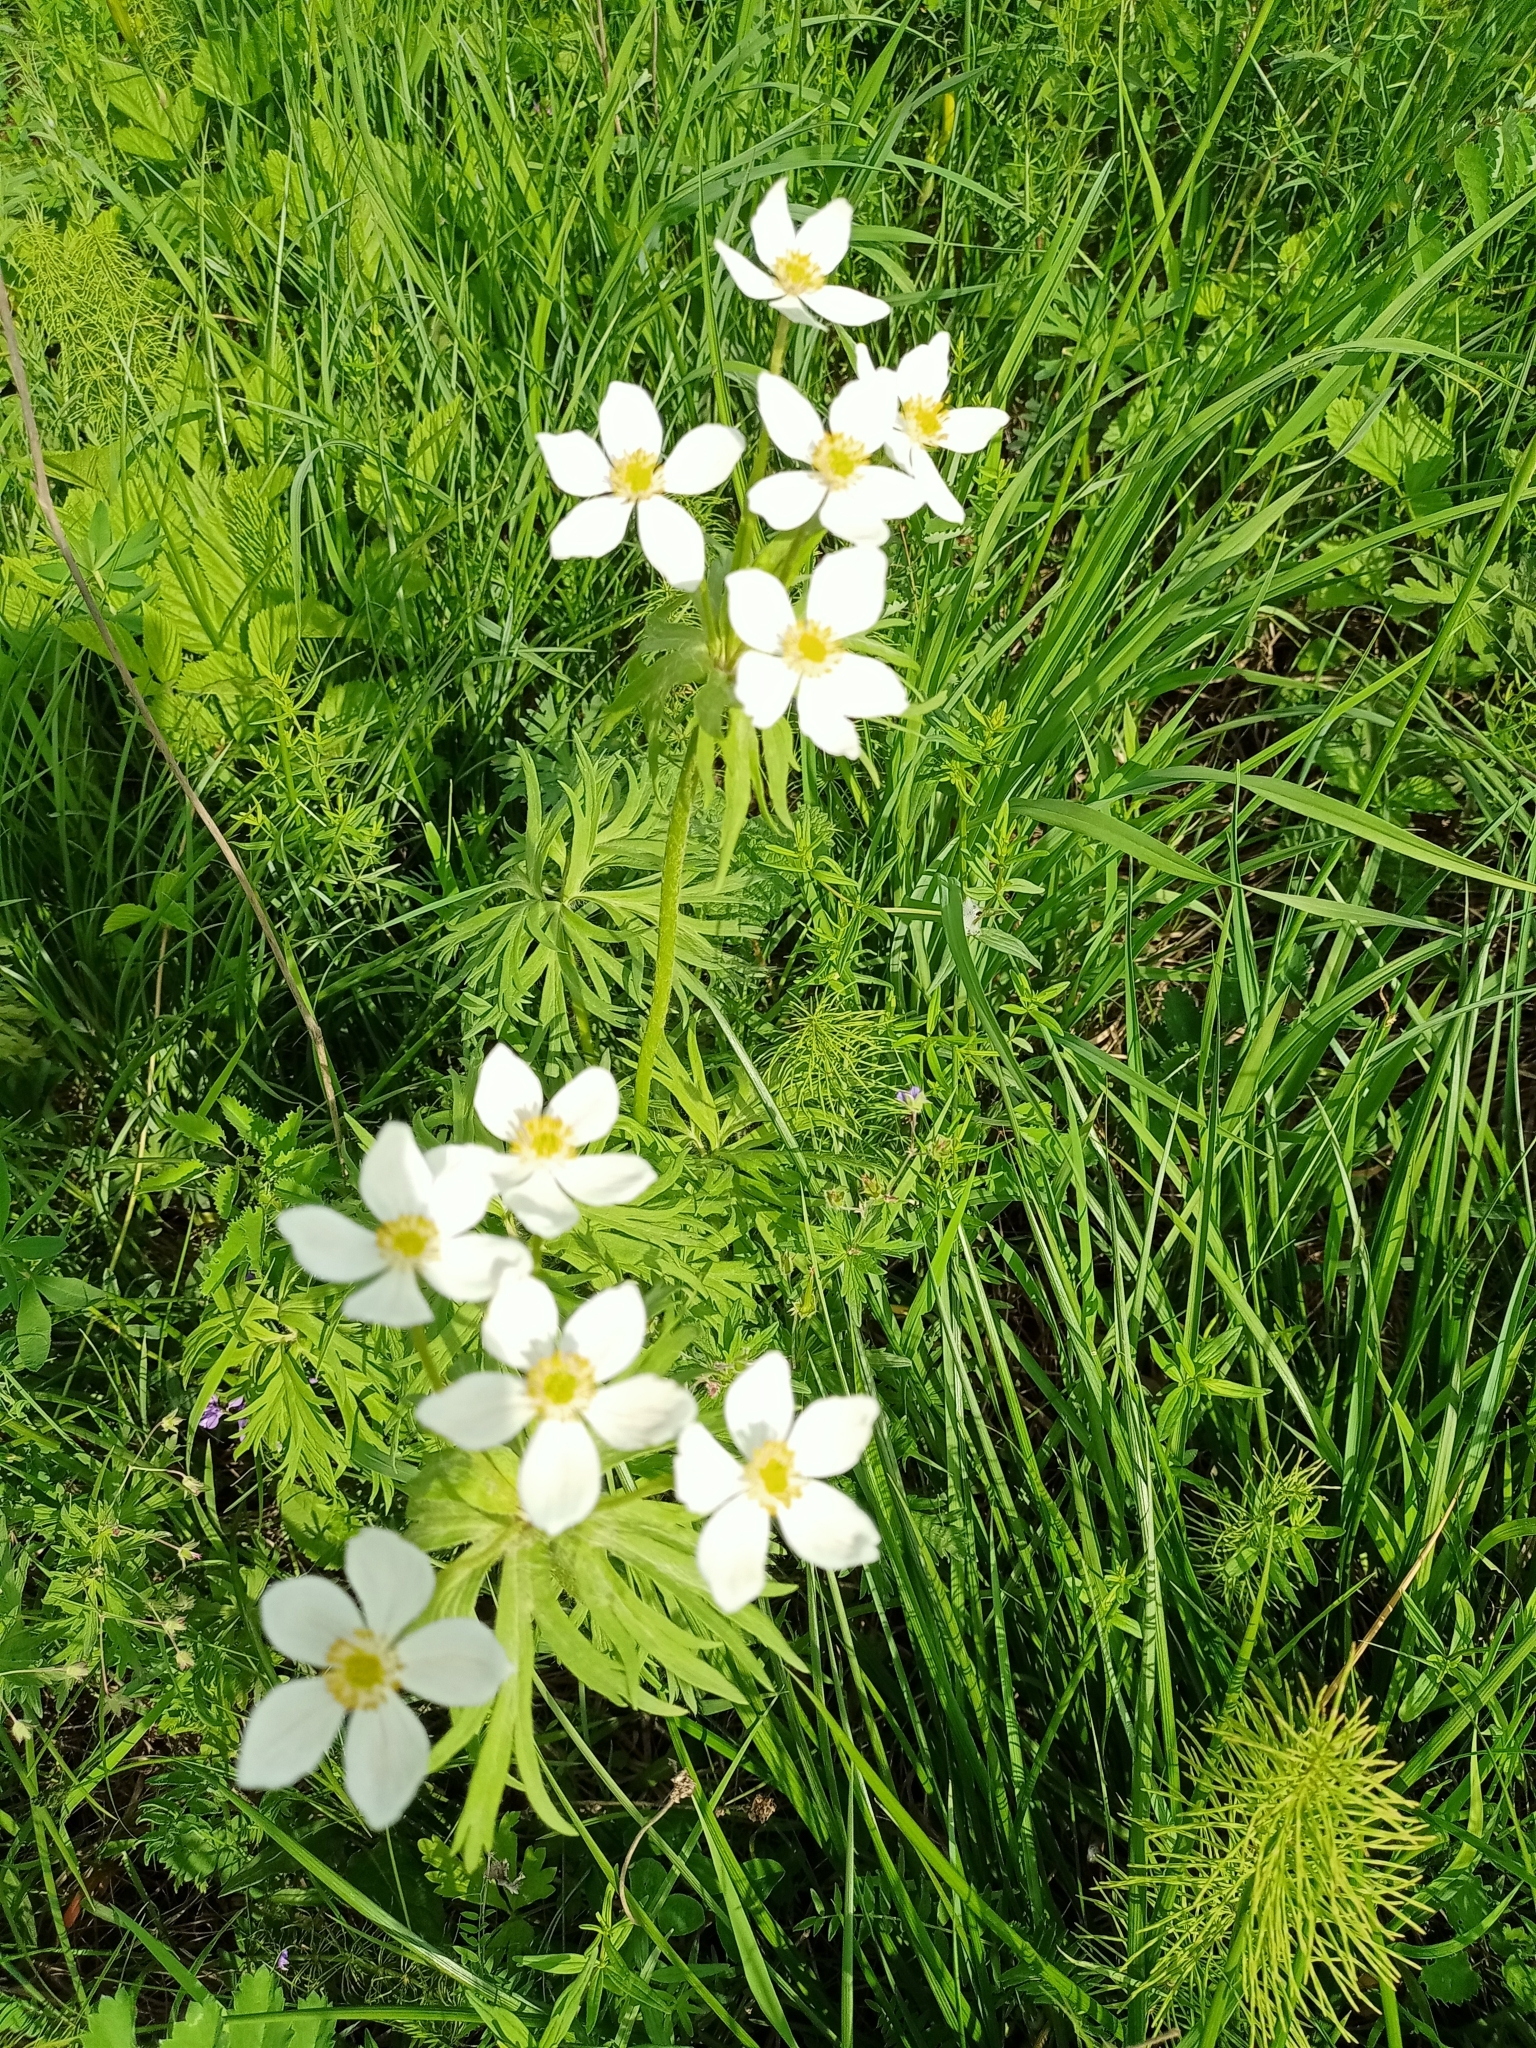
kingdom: Plantae
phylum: Tracheophyta
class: Magnoliopsida
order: Ranunculales
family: Ranunculaceae
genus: Anemonastrum
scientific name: Anemonastrum narcissiflorum
